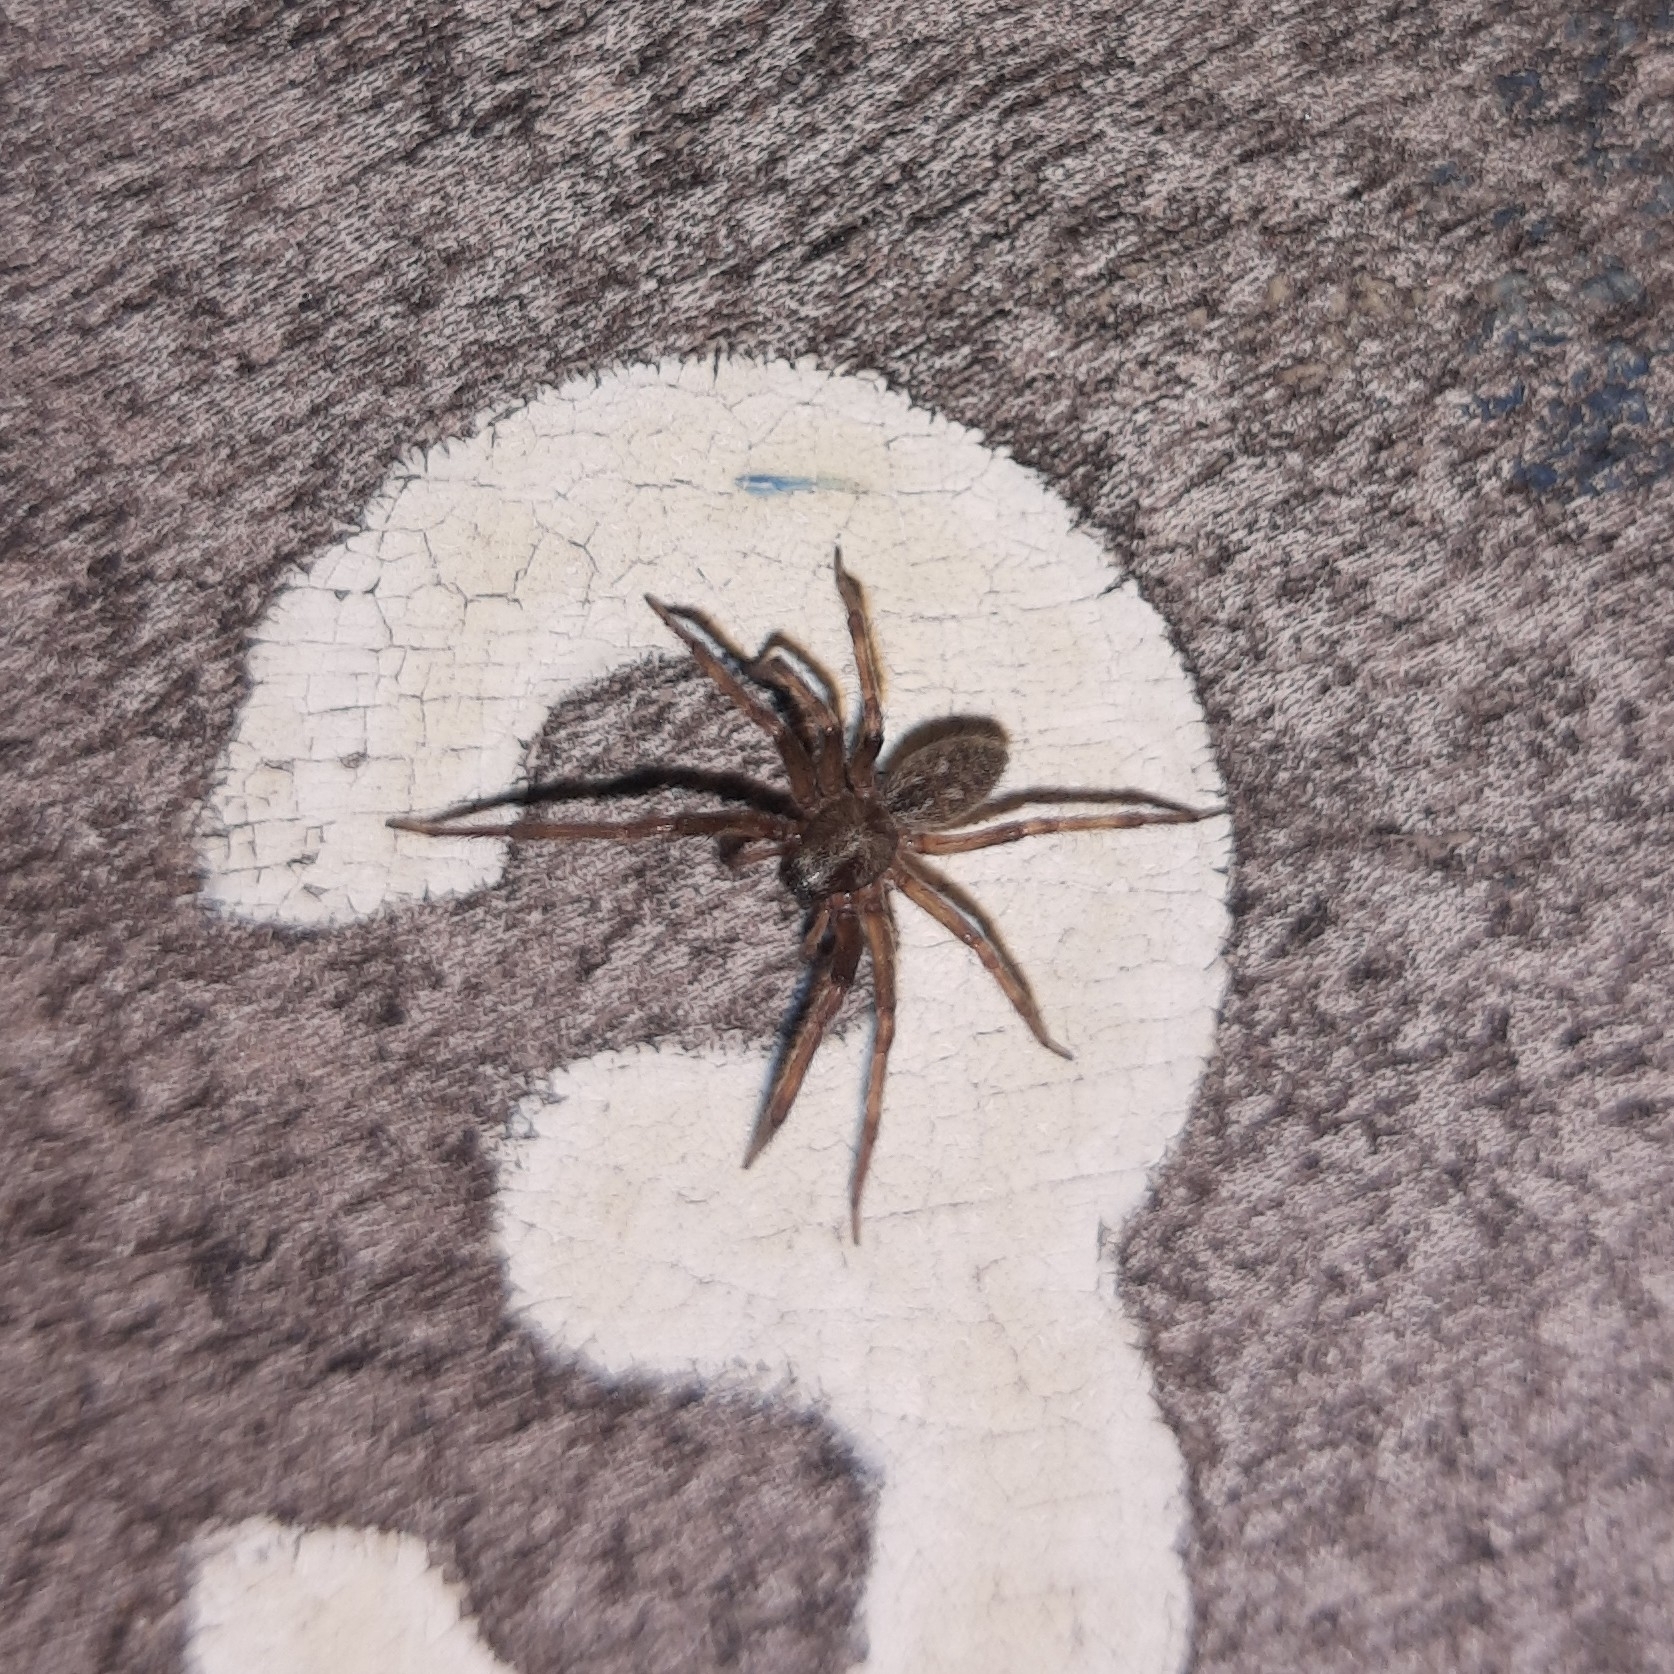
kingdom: Animalia
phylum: Arthropoda
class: Arachnida
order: Araneae
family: Desidae
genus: Badumna
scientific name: Badumna longinqua
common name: Gray house spider
